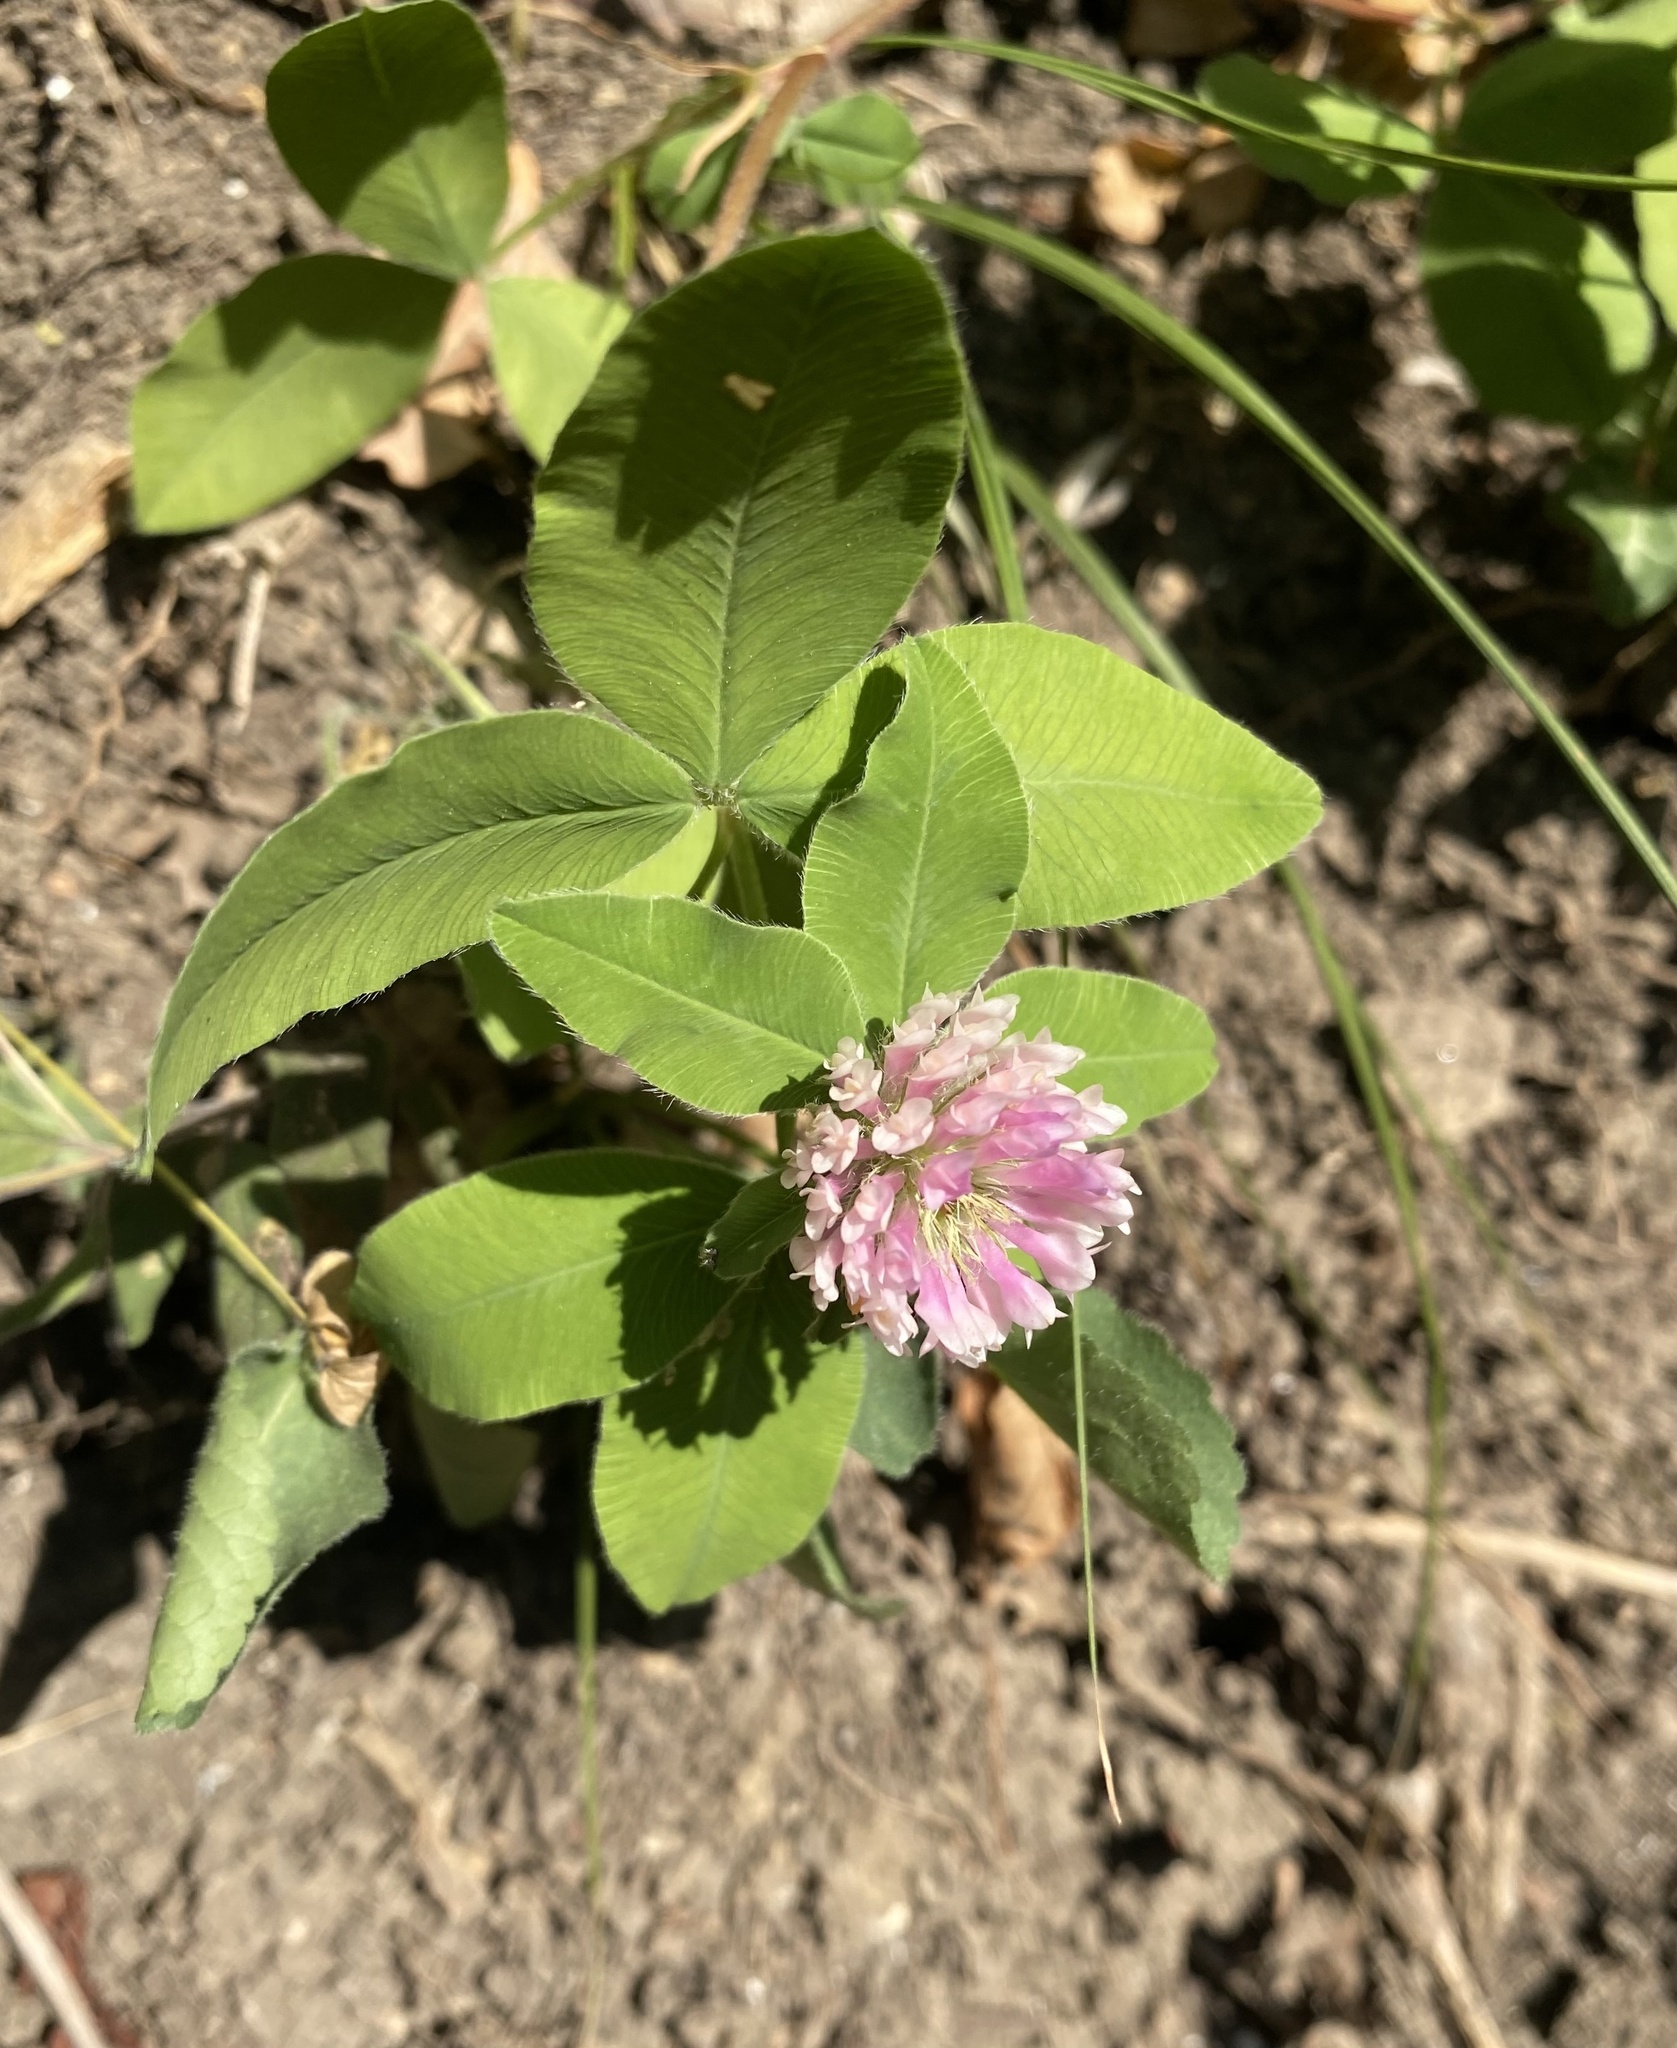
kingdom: Plantae
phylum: Tracheophyta
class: Magnoliopsida
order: Fabales
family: Fabaceae
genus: Trifolium
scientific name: Trifolium pratense
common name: Red clover
